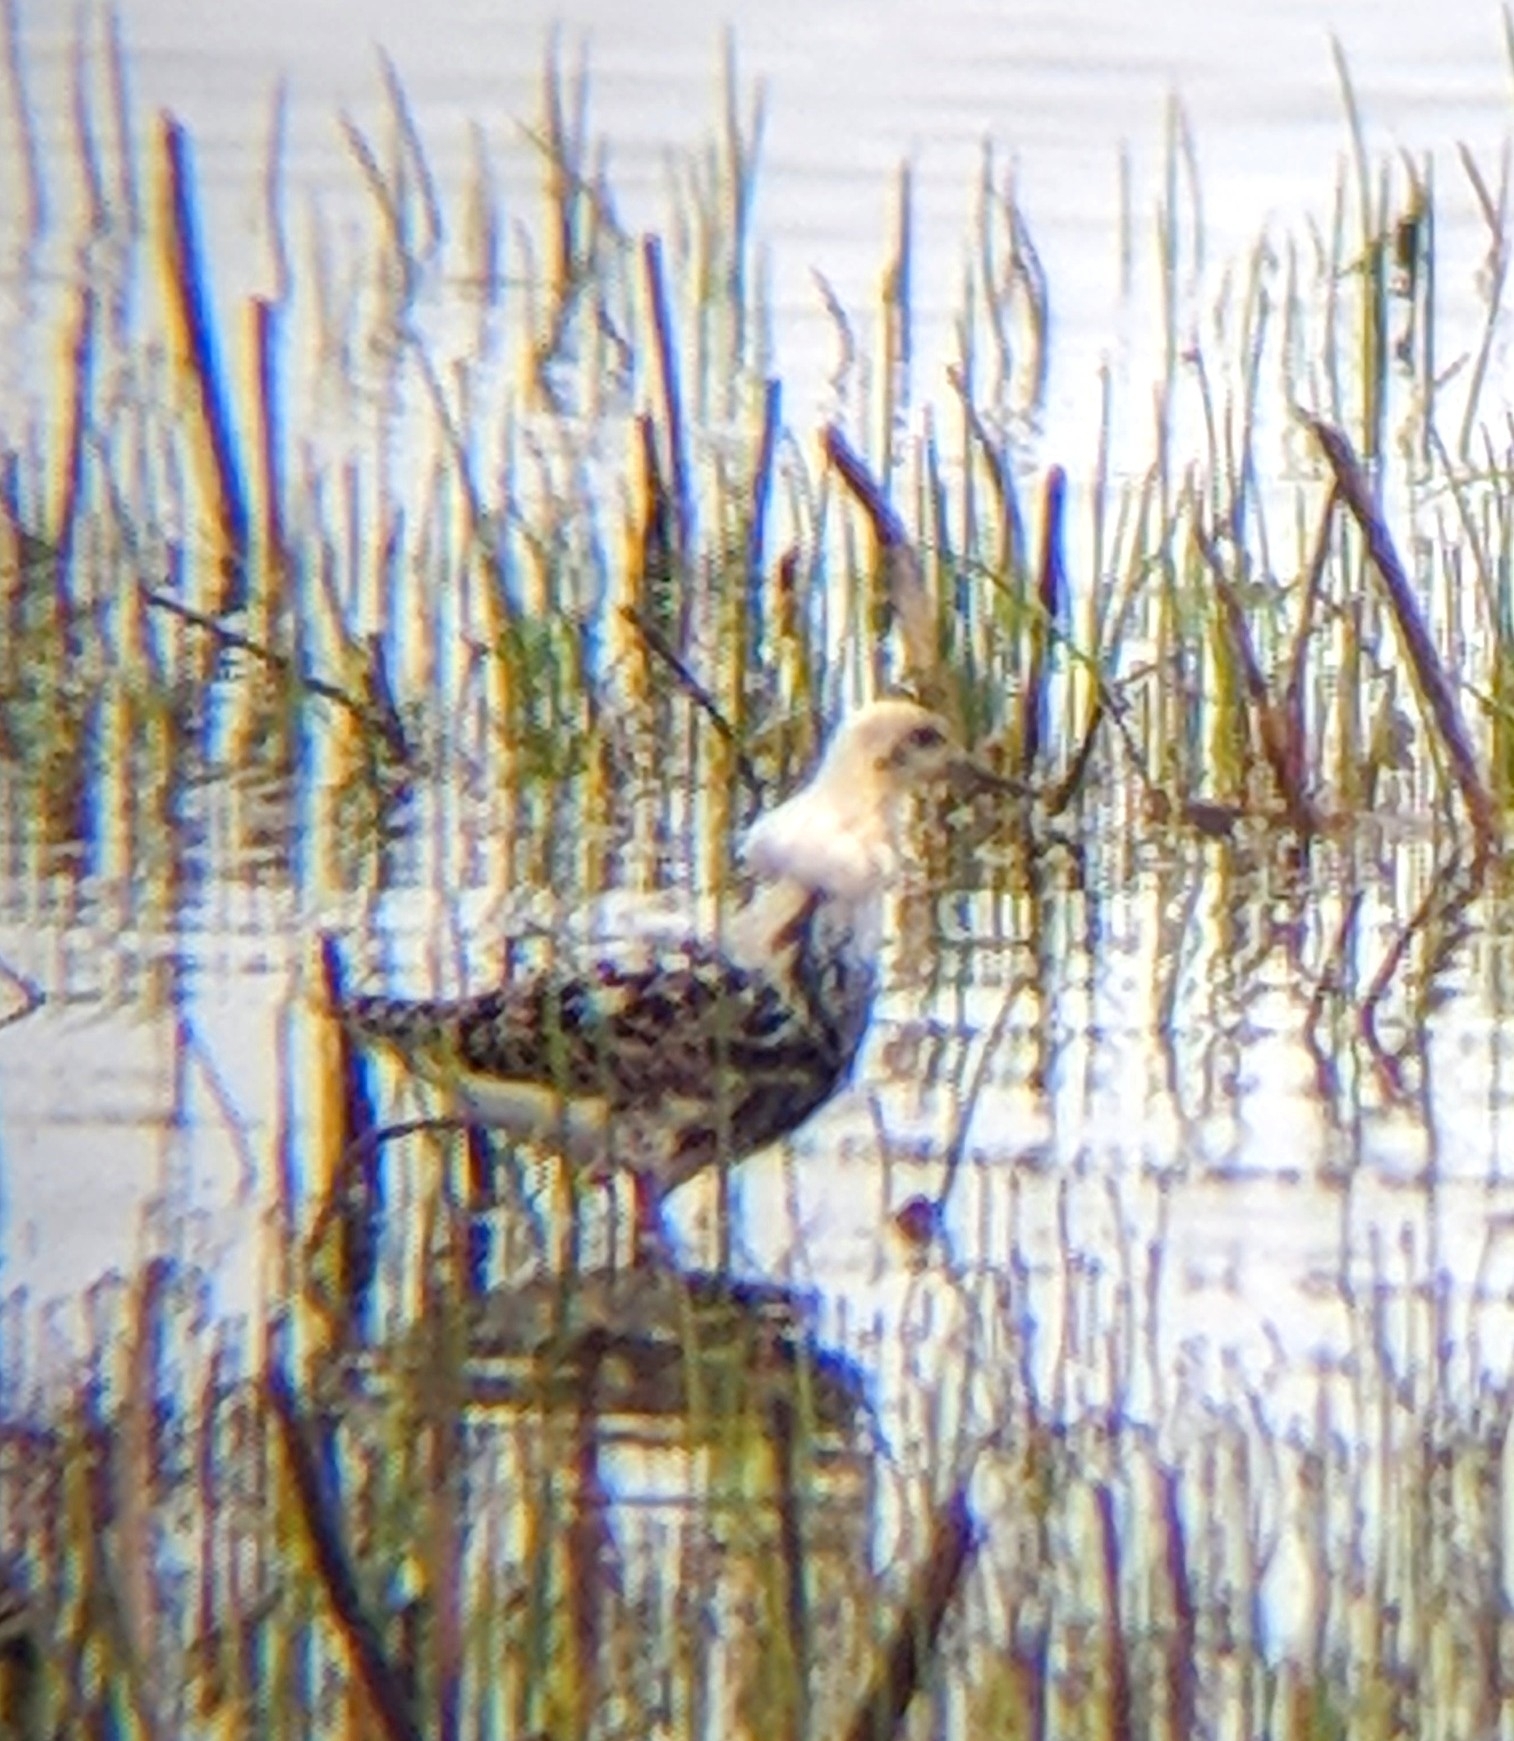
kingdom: Animalia
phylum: Chordata
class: Aves
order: Charadriiformes
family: Scolopacidae
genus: Calidris
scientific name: Calidris pugnax
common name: Ruff
